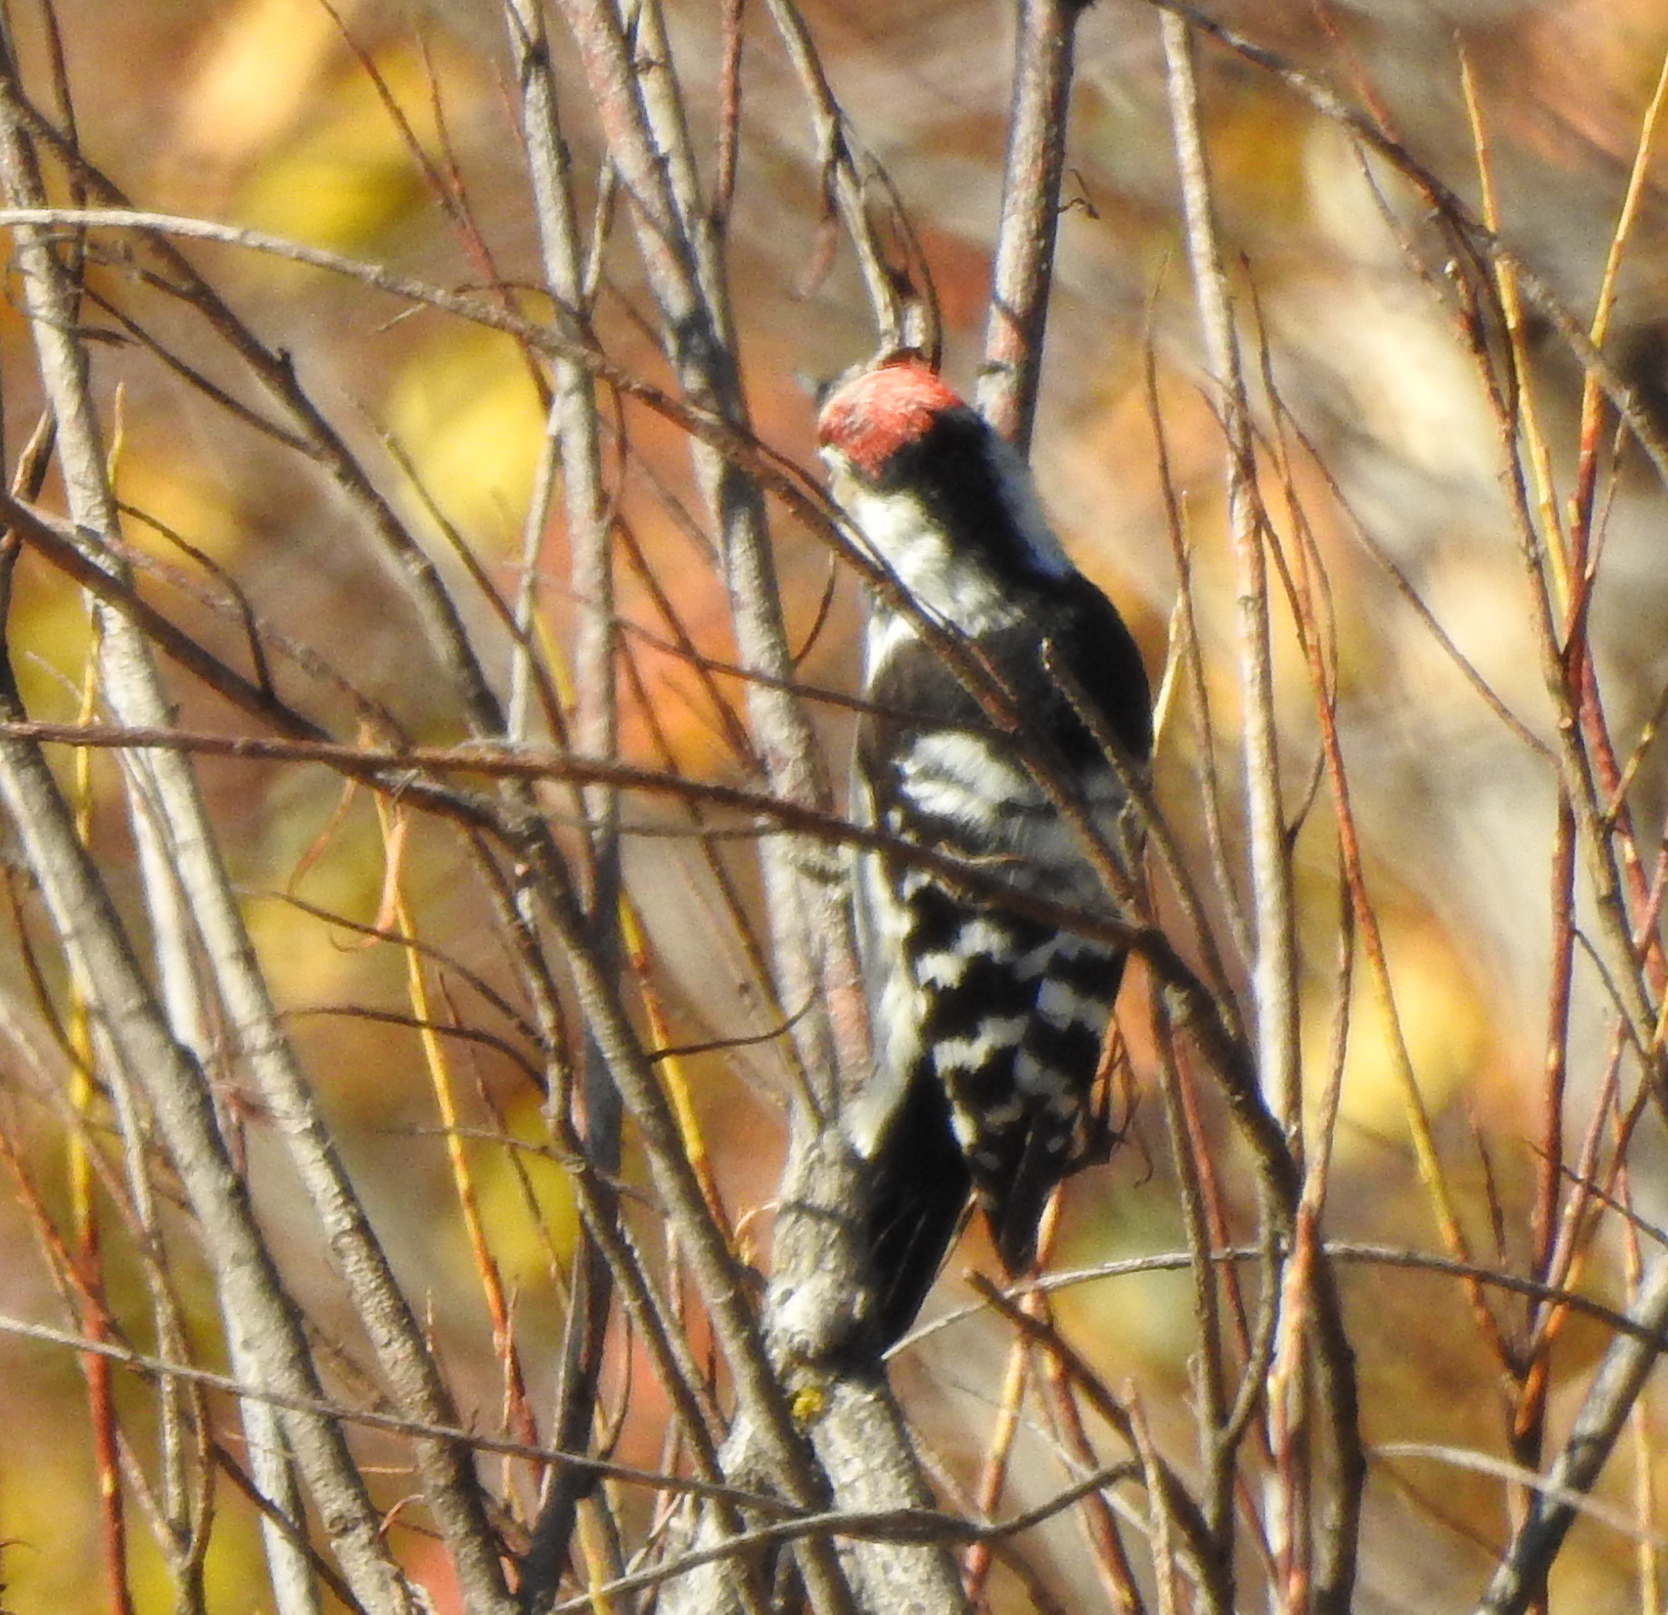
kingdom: Animalia
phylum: Chordata
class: Aves
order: Piciformes
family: Picidae
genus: Dryobates
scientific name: Dryobates minor
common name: Lesser spotted woodpecker
